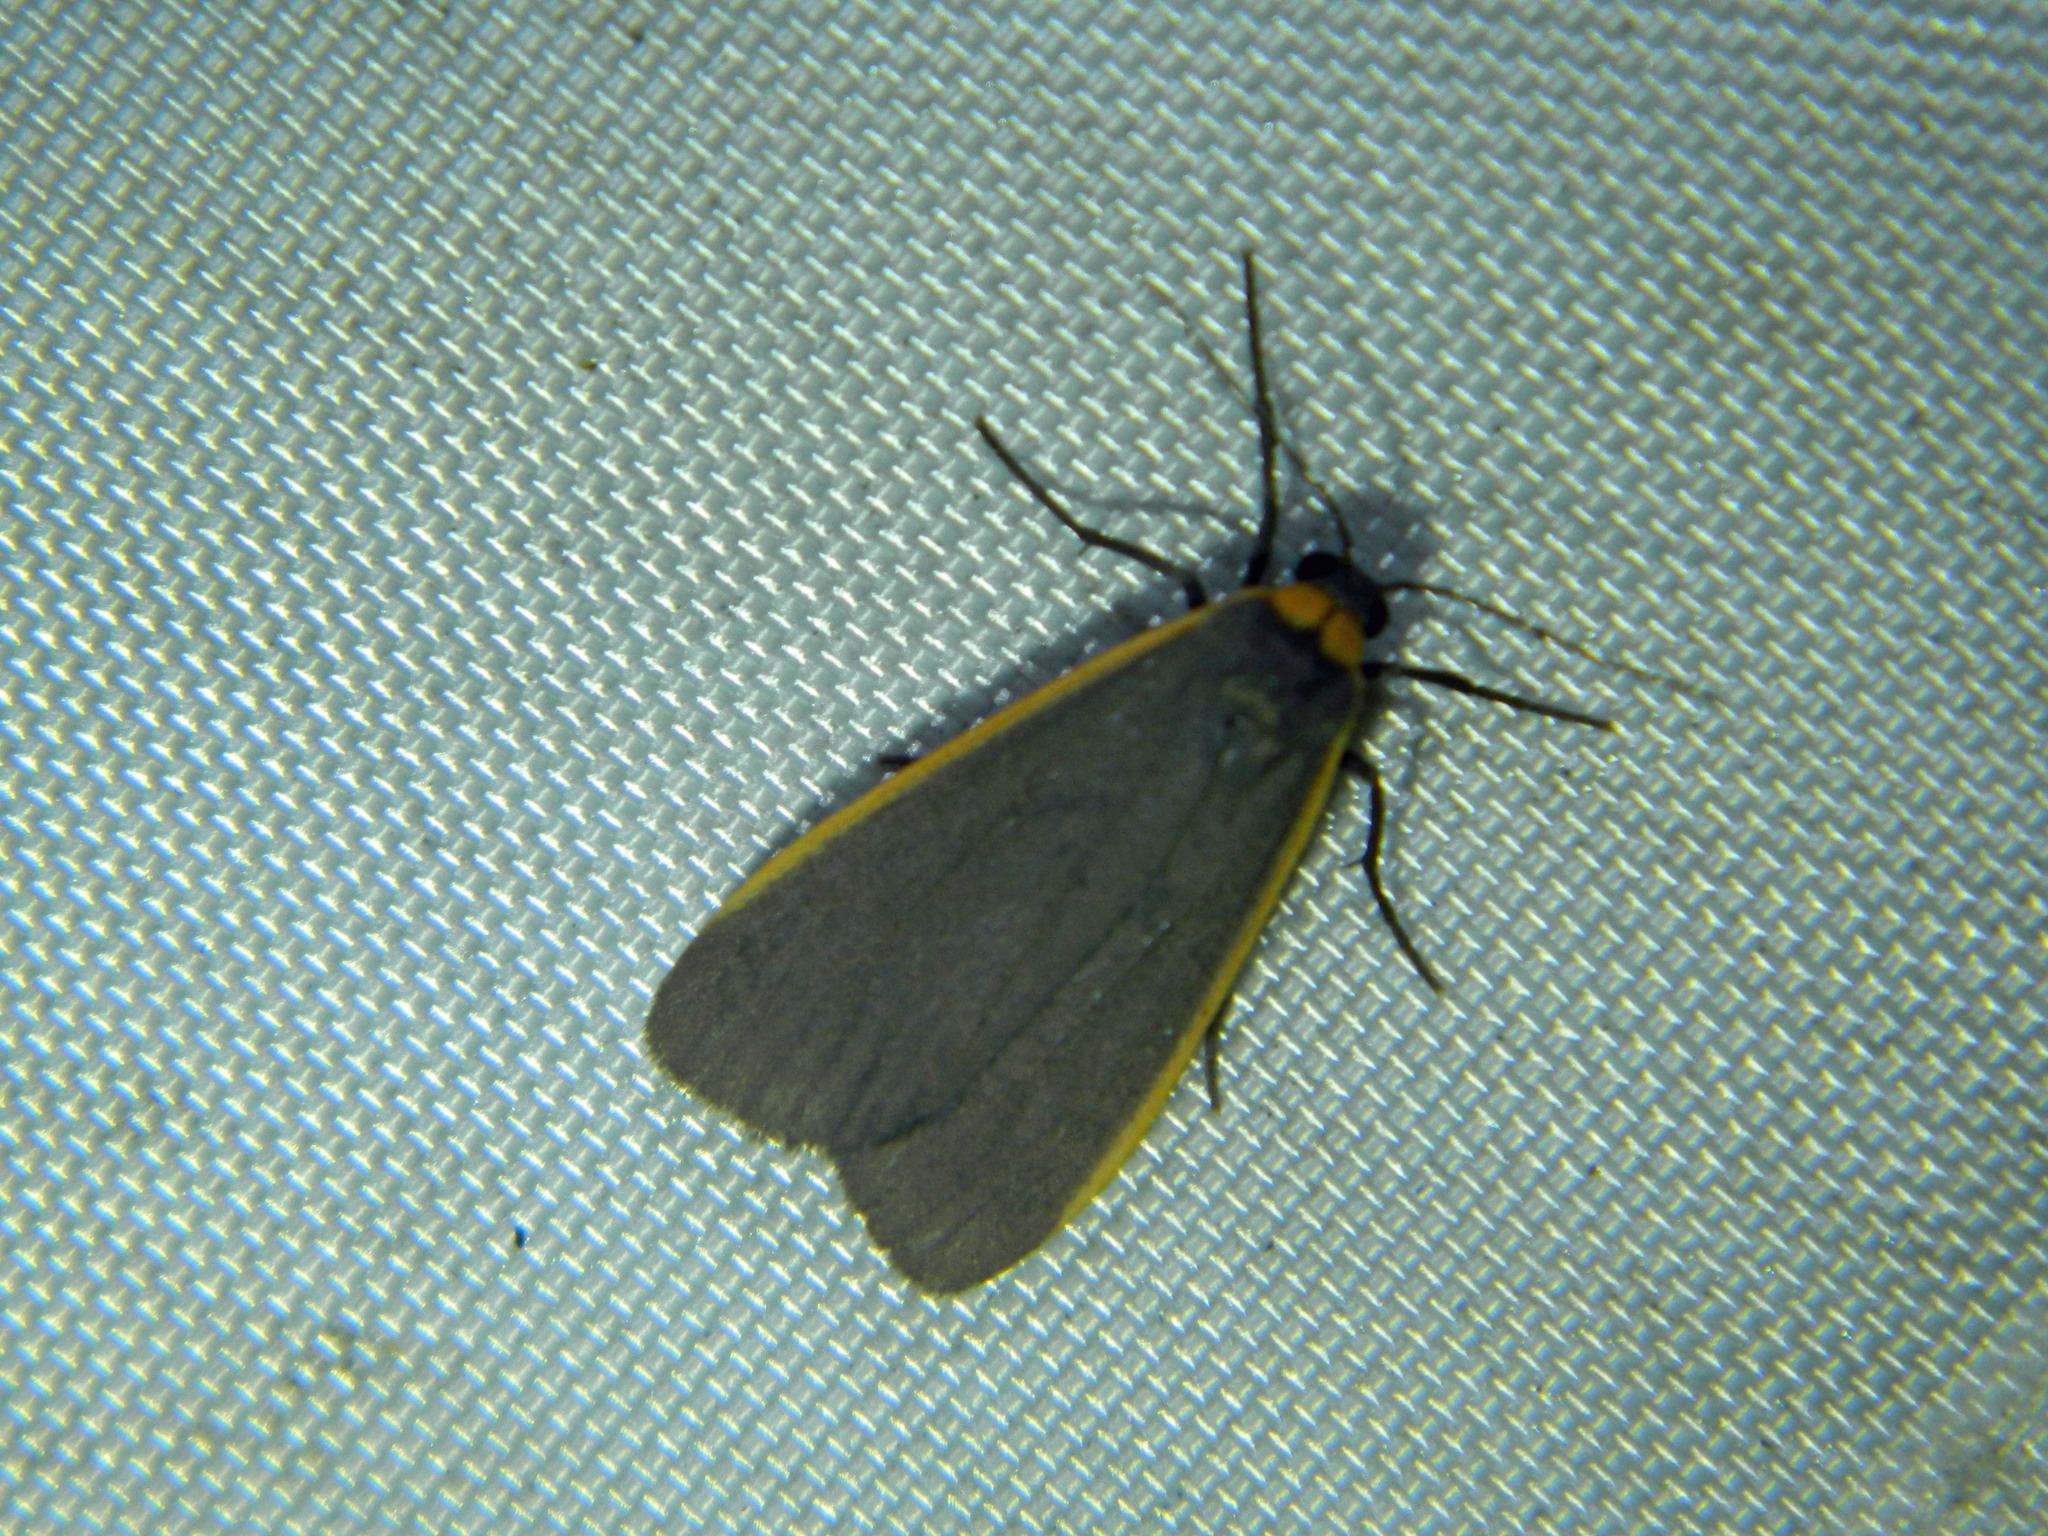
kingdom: Animalia
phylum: Arthropoda
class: Insecta
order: Lepidoptera
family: Erebidae
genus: Manulea
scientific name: Manulea bicolor
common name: Bicolored moth
